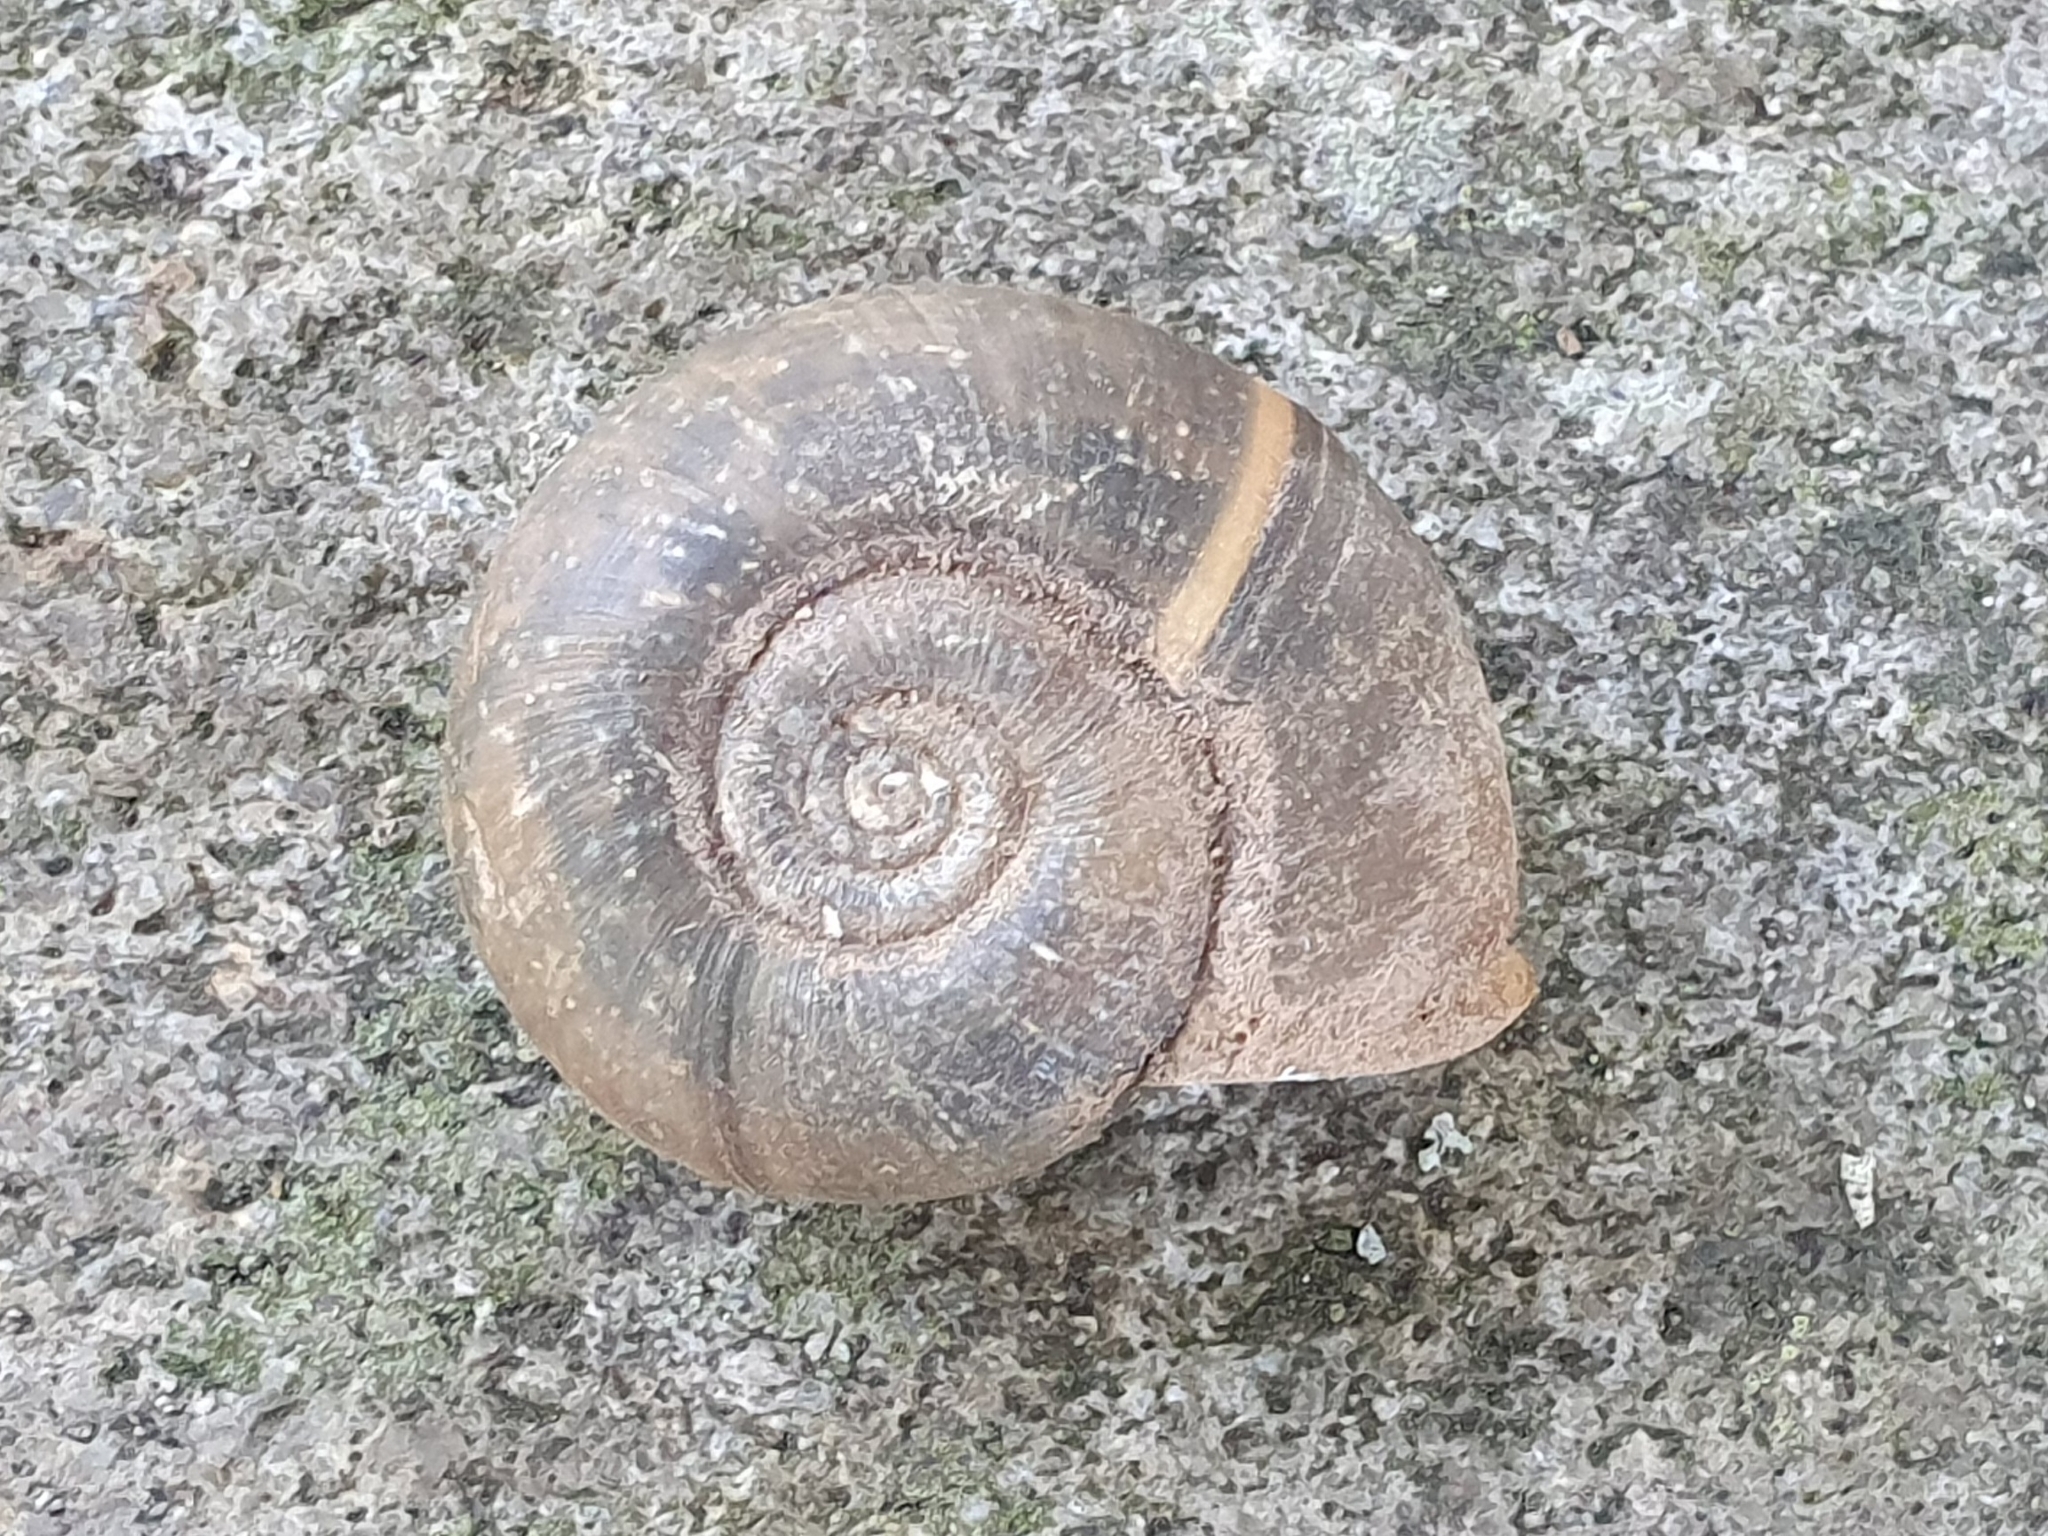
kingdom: Animalia
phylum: Mollusca
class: Gastropoda
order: Stylommatophora
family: Elonidae
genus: Elona
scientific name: Elona quimperiana
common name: Quimper snail
